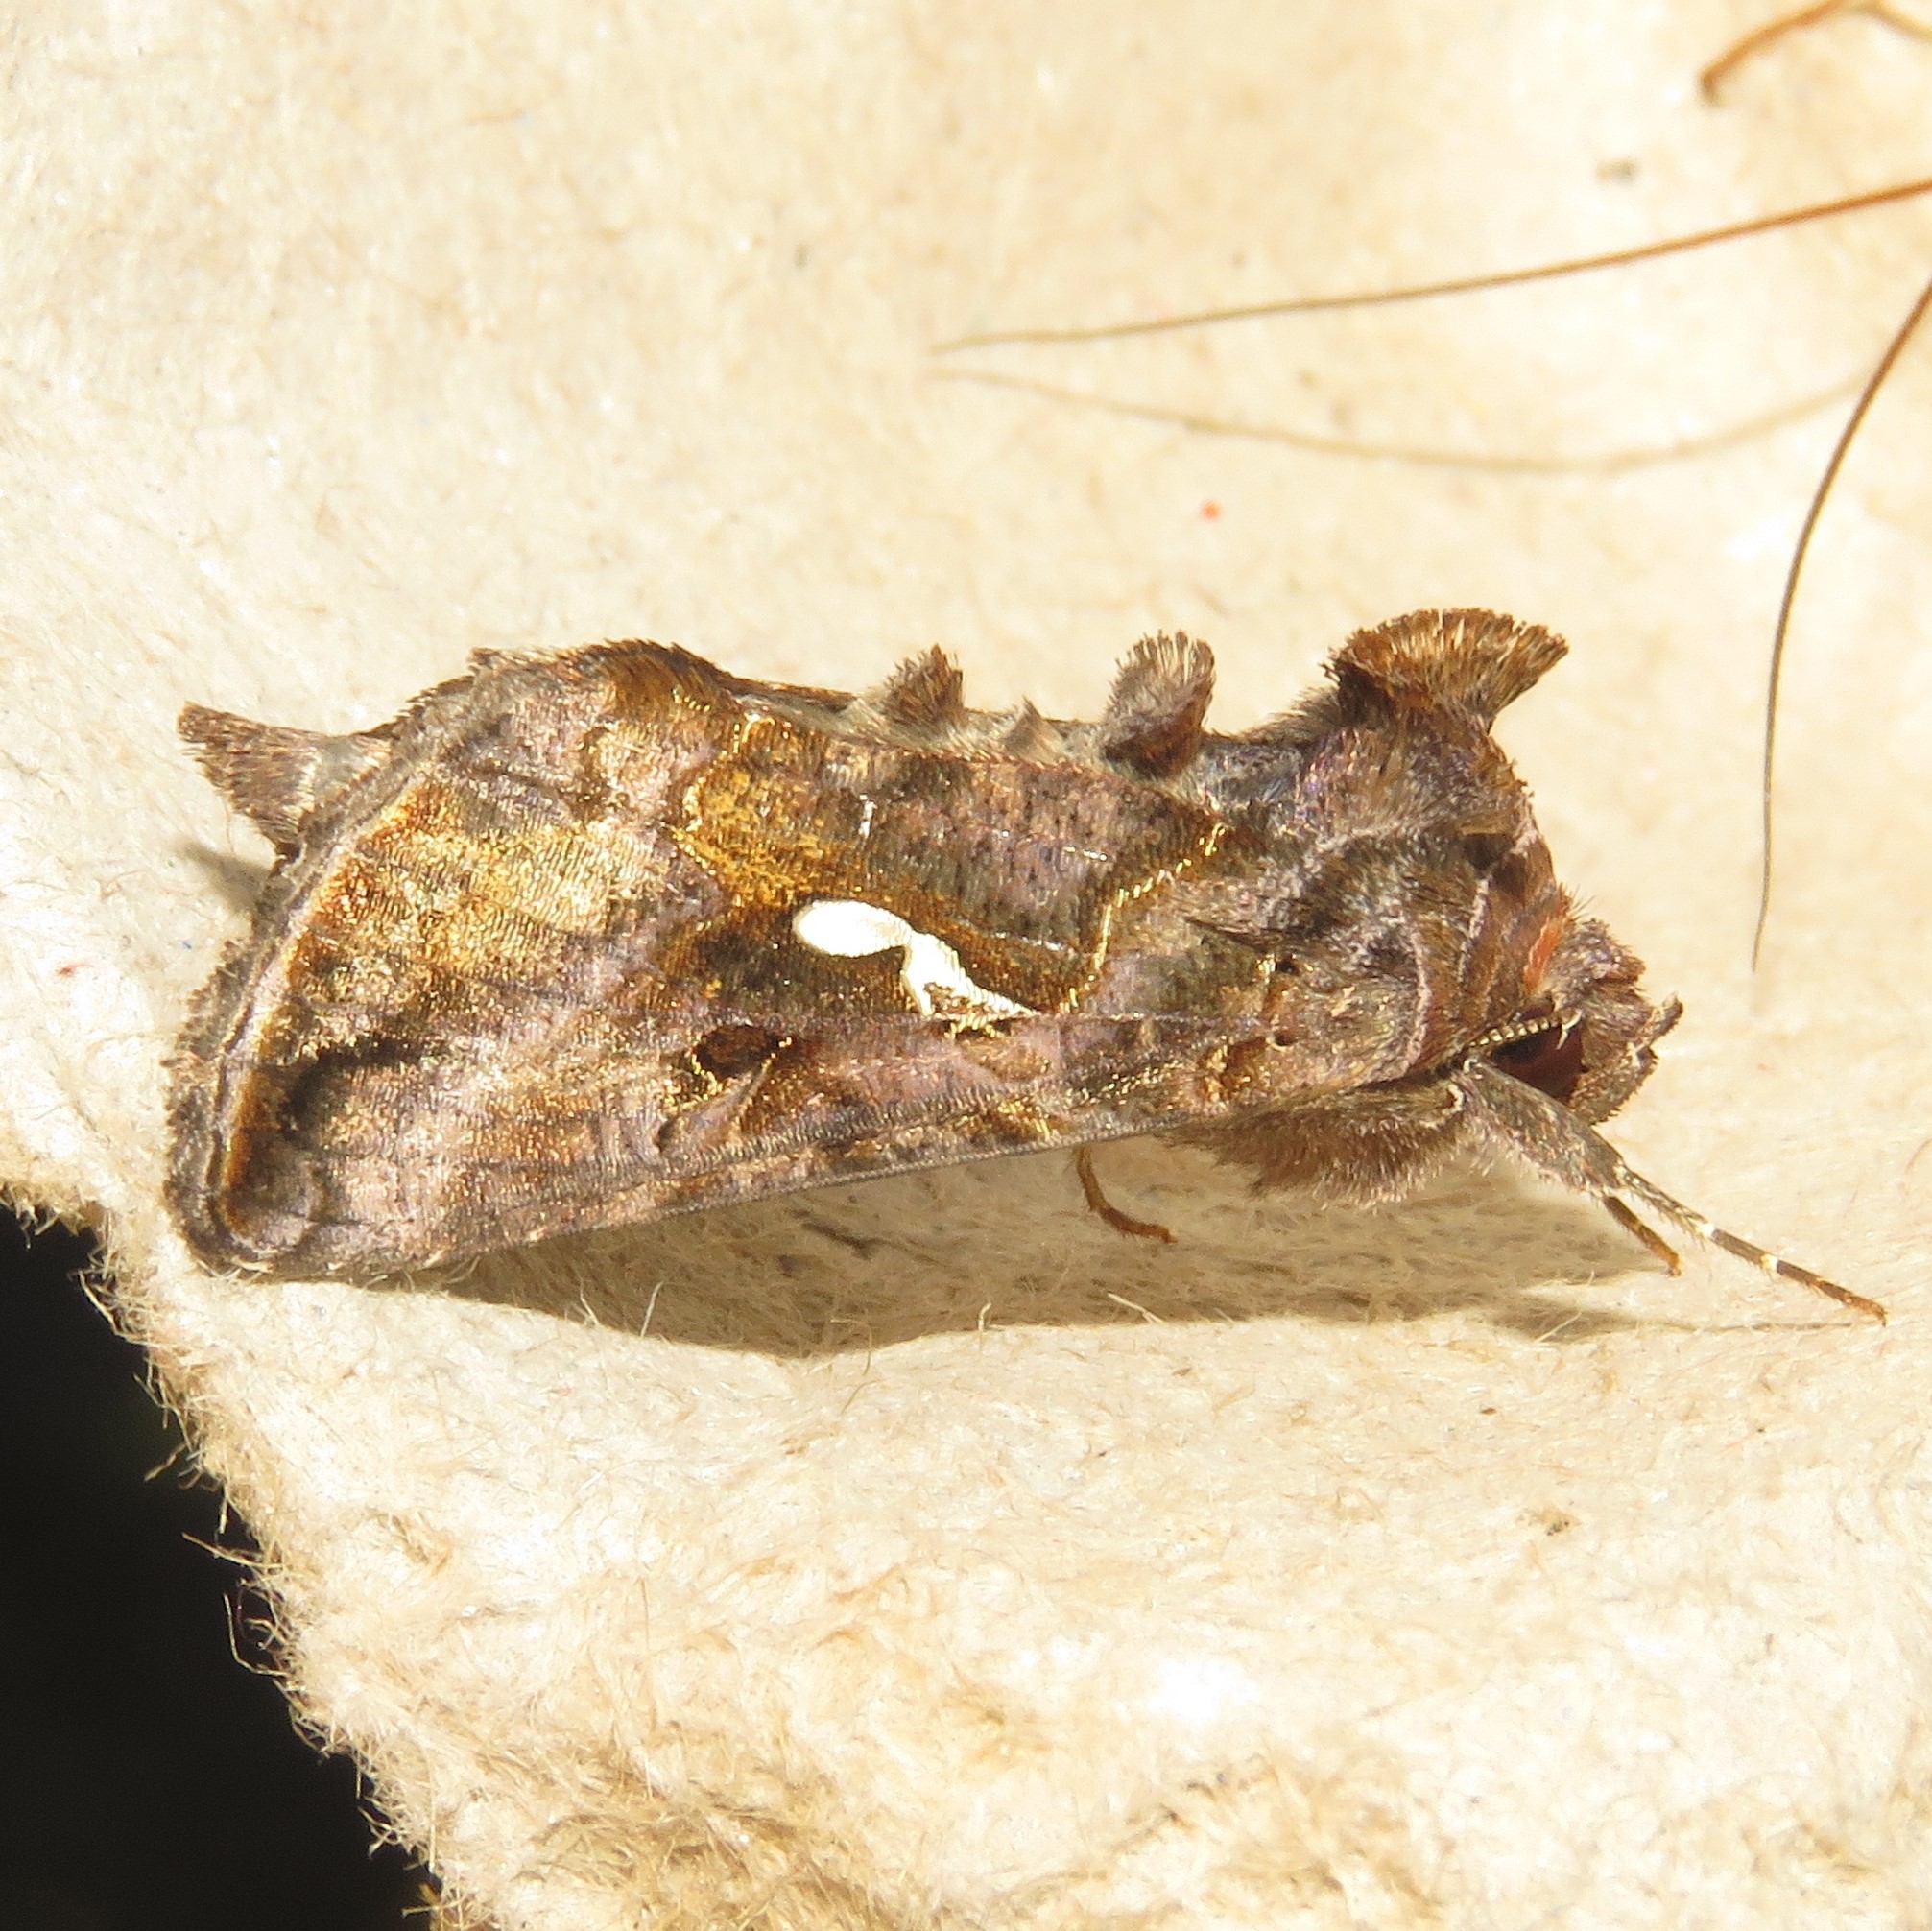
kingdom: Animalia
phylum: Arthropoda
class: Insecta
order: Lepidoptera
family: Noctuidae
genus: Autographa
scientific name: Autographa precationis
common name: Common looper moth
